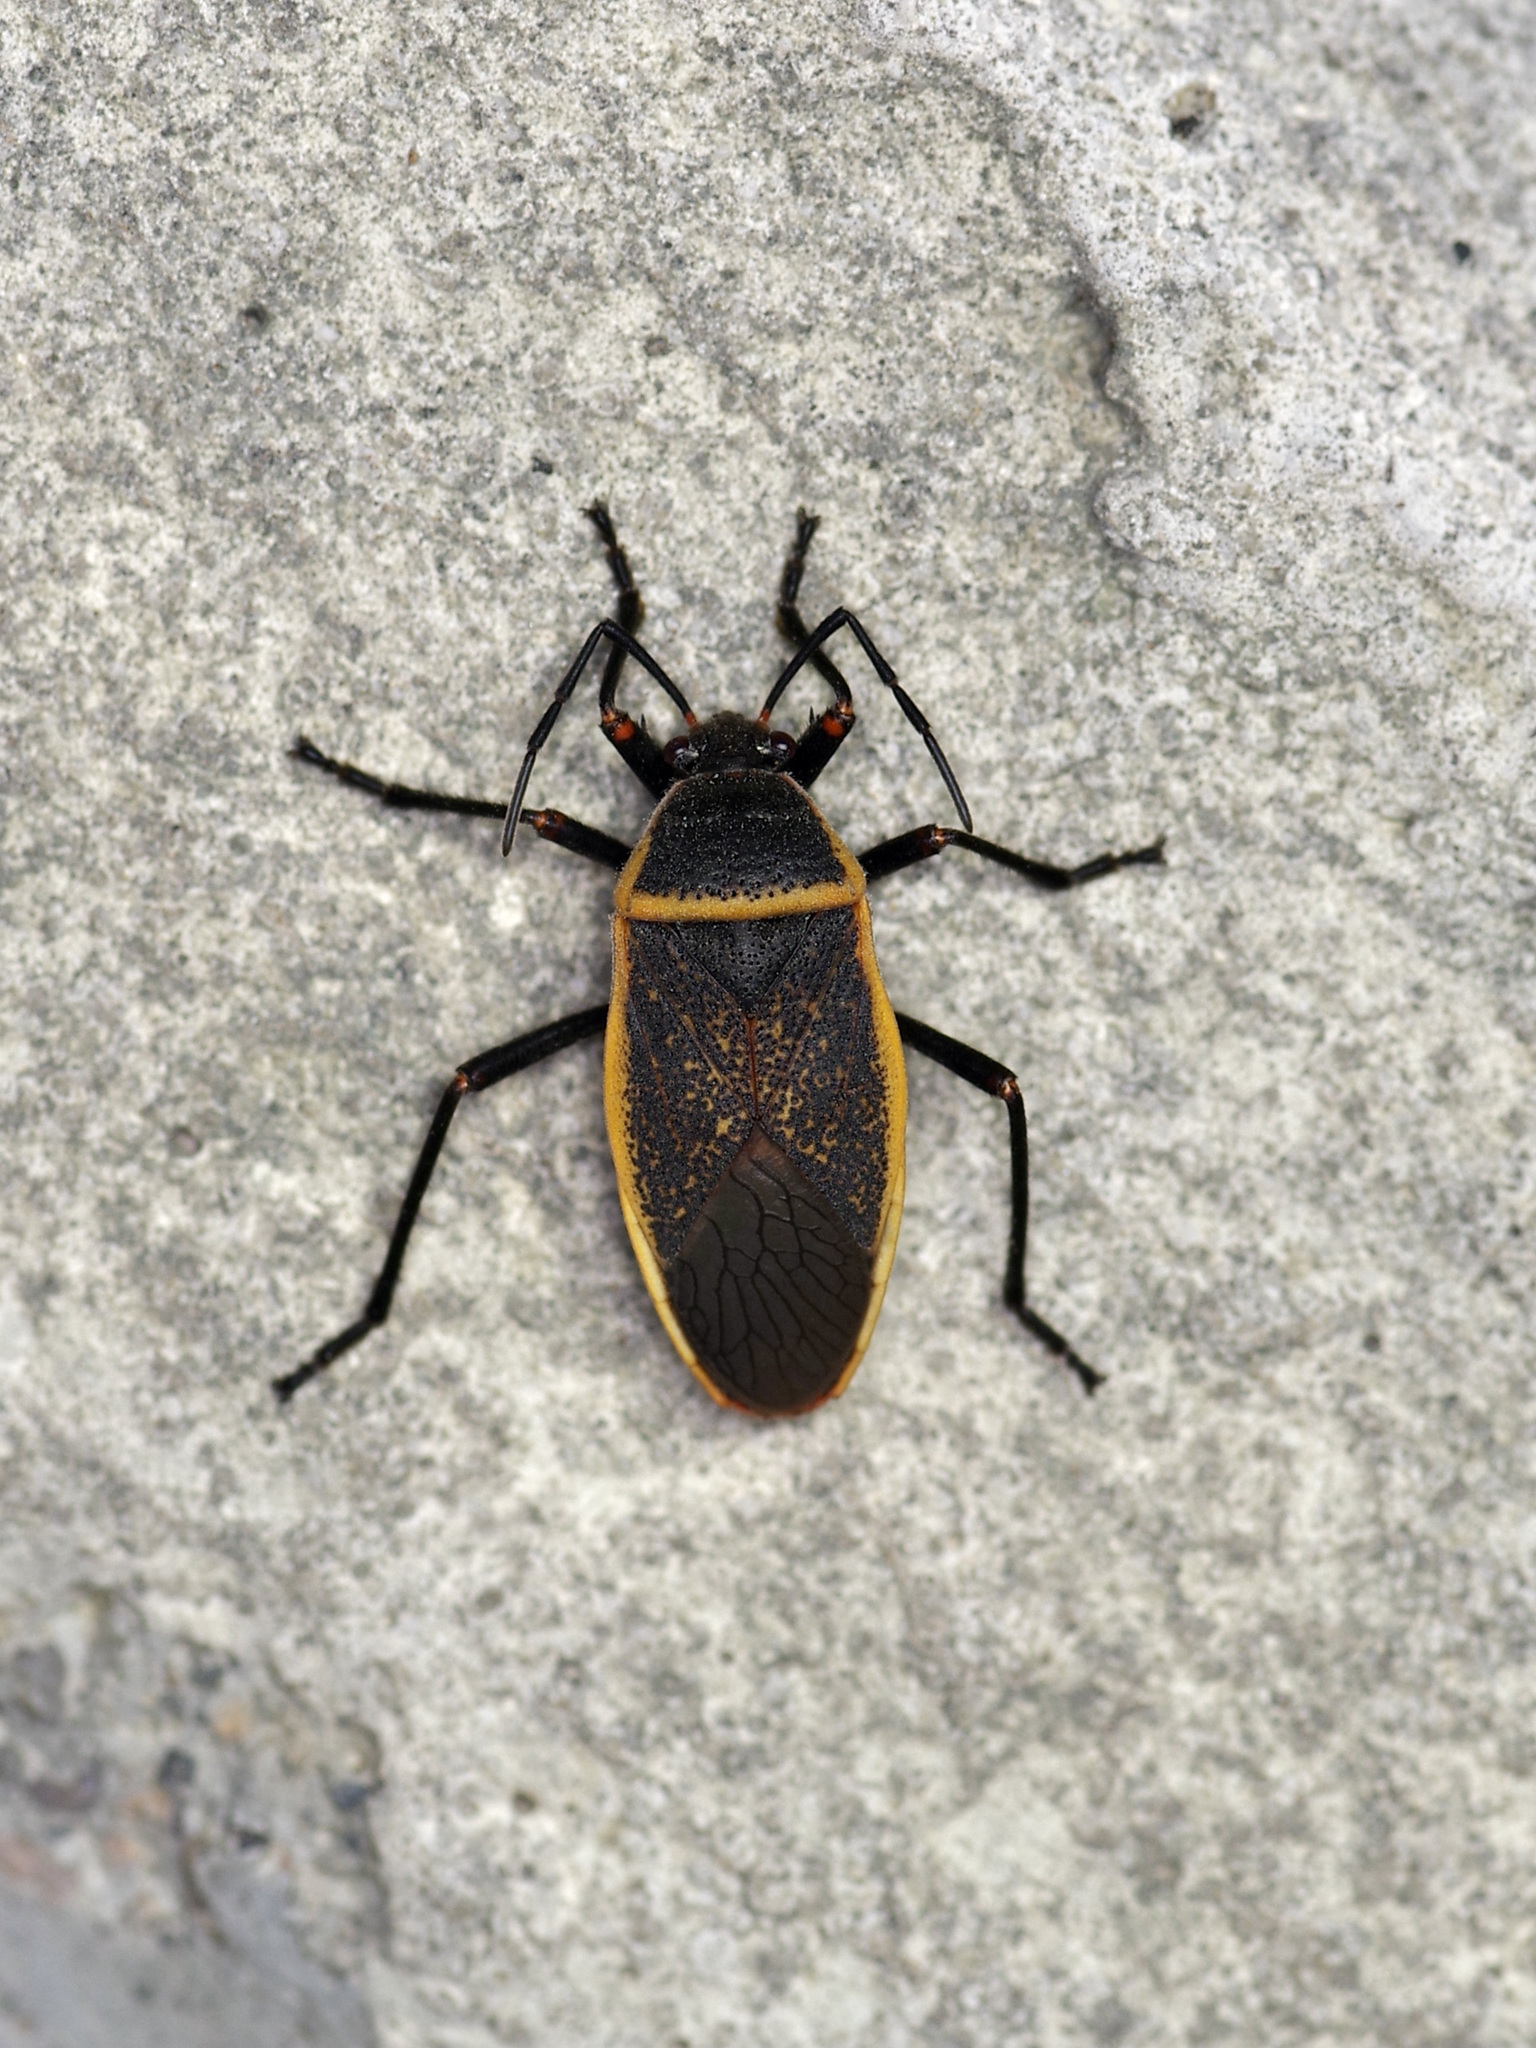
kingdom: Animalia
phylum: Arthropoda
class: Insecta
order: Hemiptera
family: Largidae
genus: Largus
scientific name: Largus californicus
